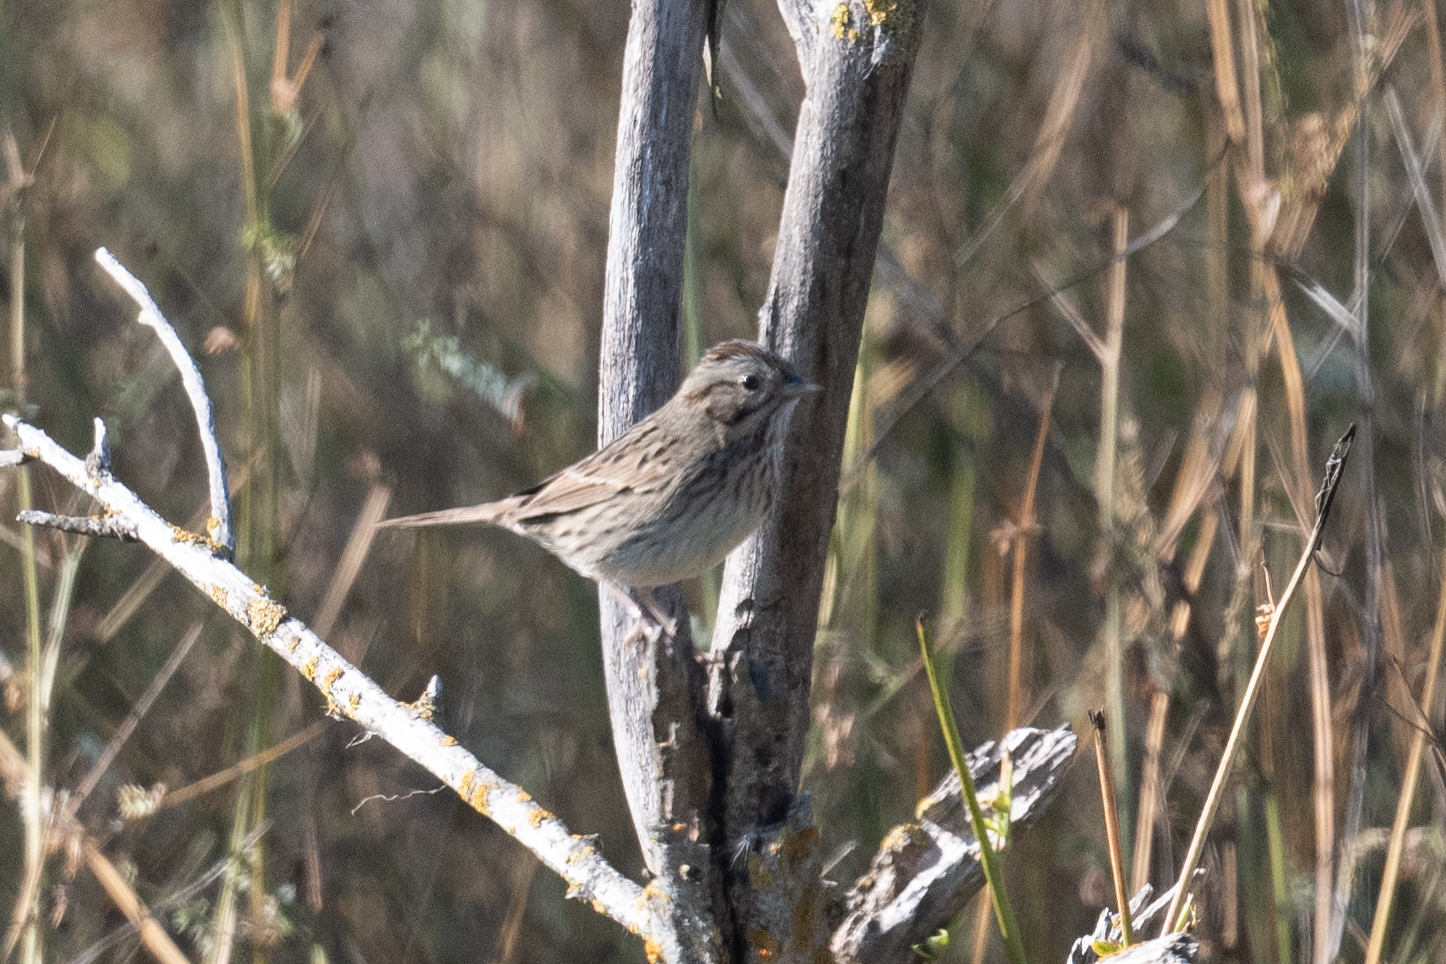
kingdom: Animalia
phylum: Chordata
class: Aves
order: Passeriformes
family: Passerellidae
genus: Melospiza
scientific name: Melospiza lincolnii
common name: Lincoln's sparrow
